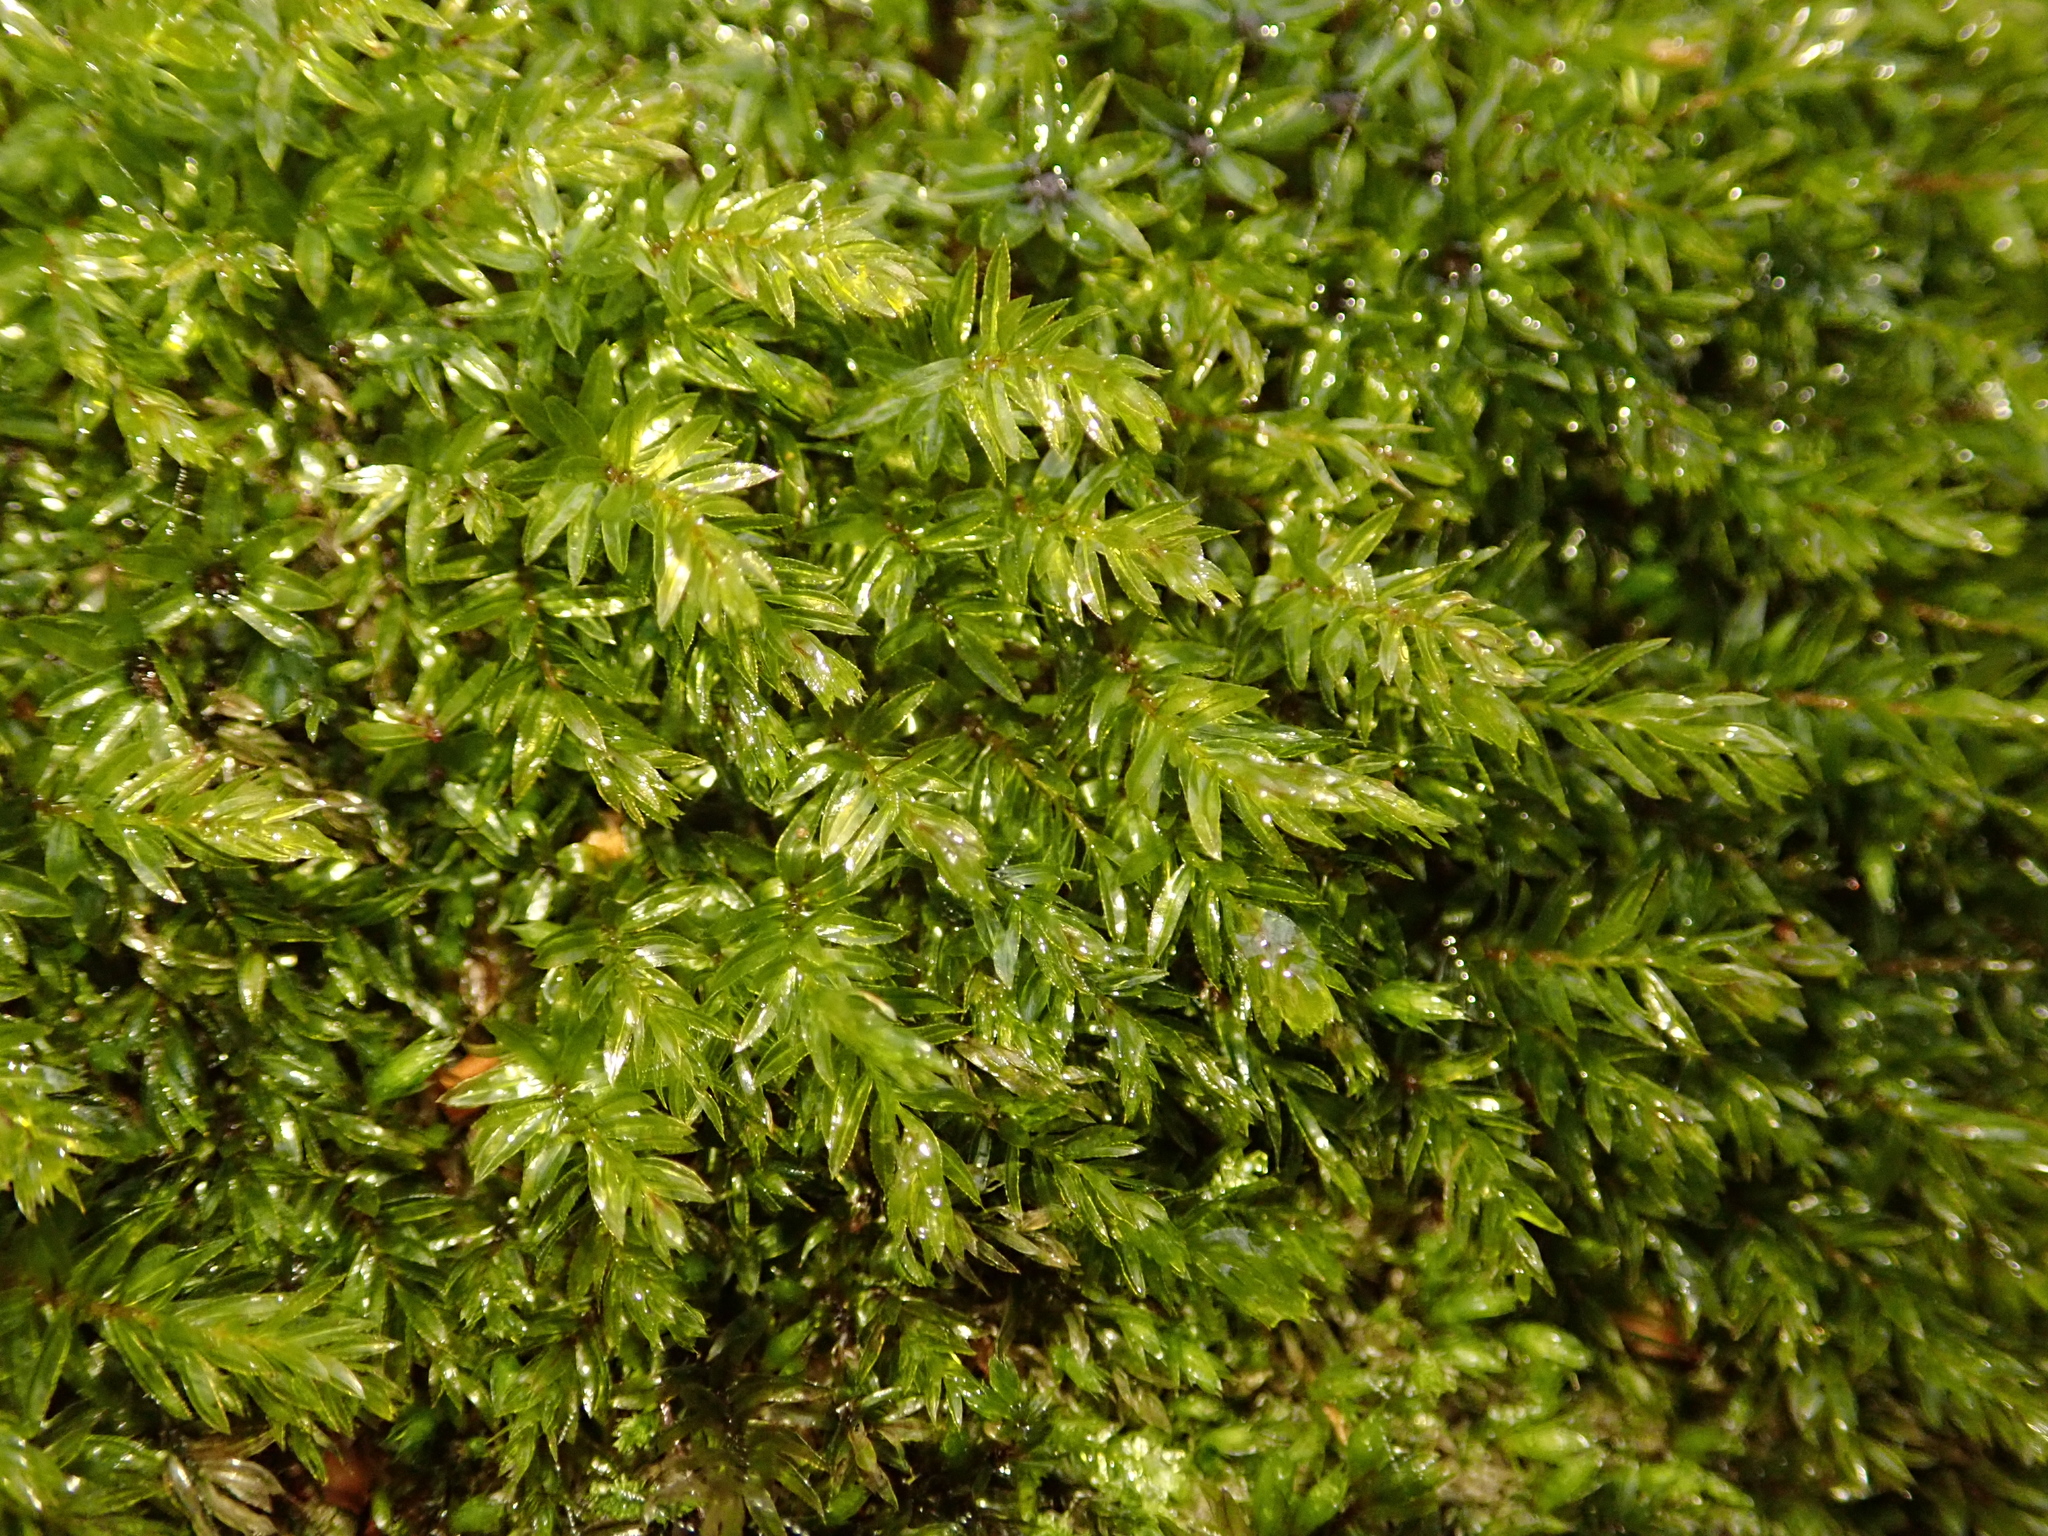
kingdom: Plantae
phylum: Bryophyta
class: Bryopsida
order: Bryales
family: Mniaceae
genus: Mnium
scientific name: Mnium hornum
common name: Swan's-neck leafy moss
